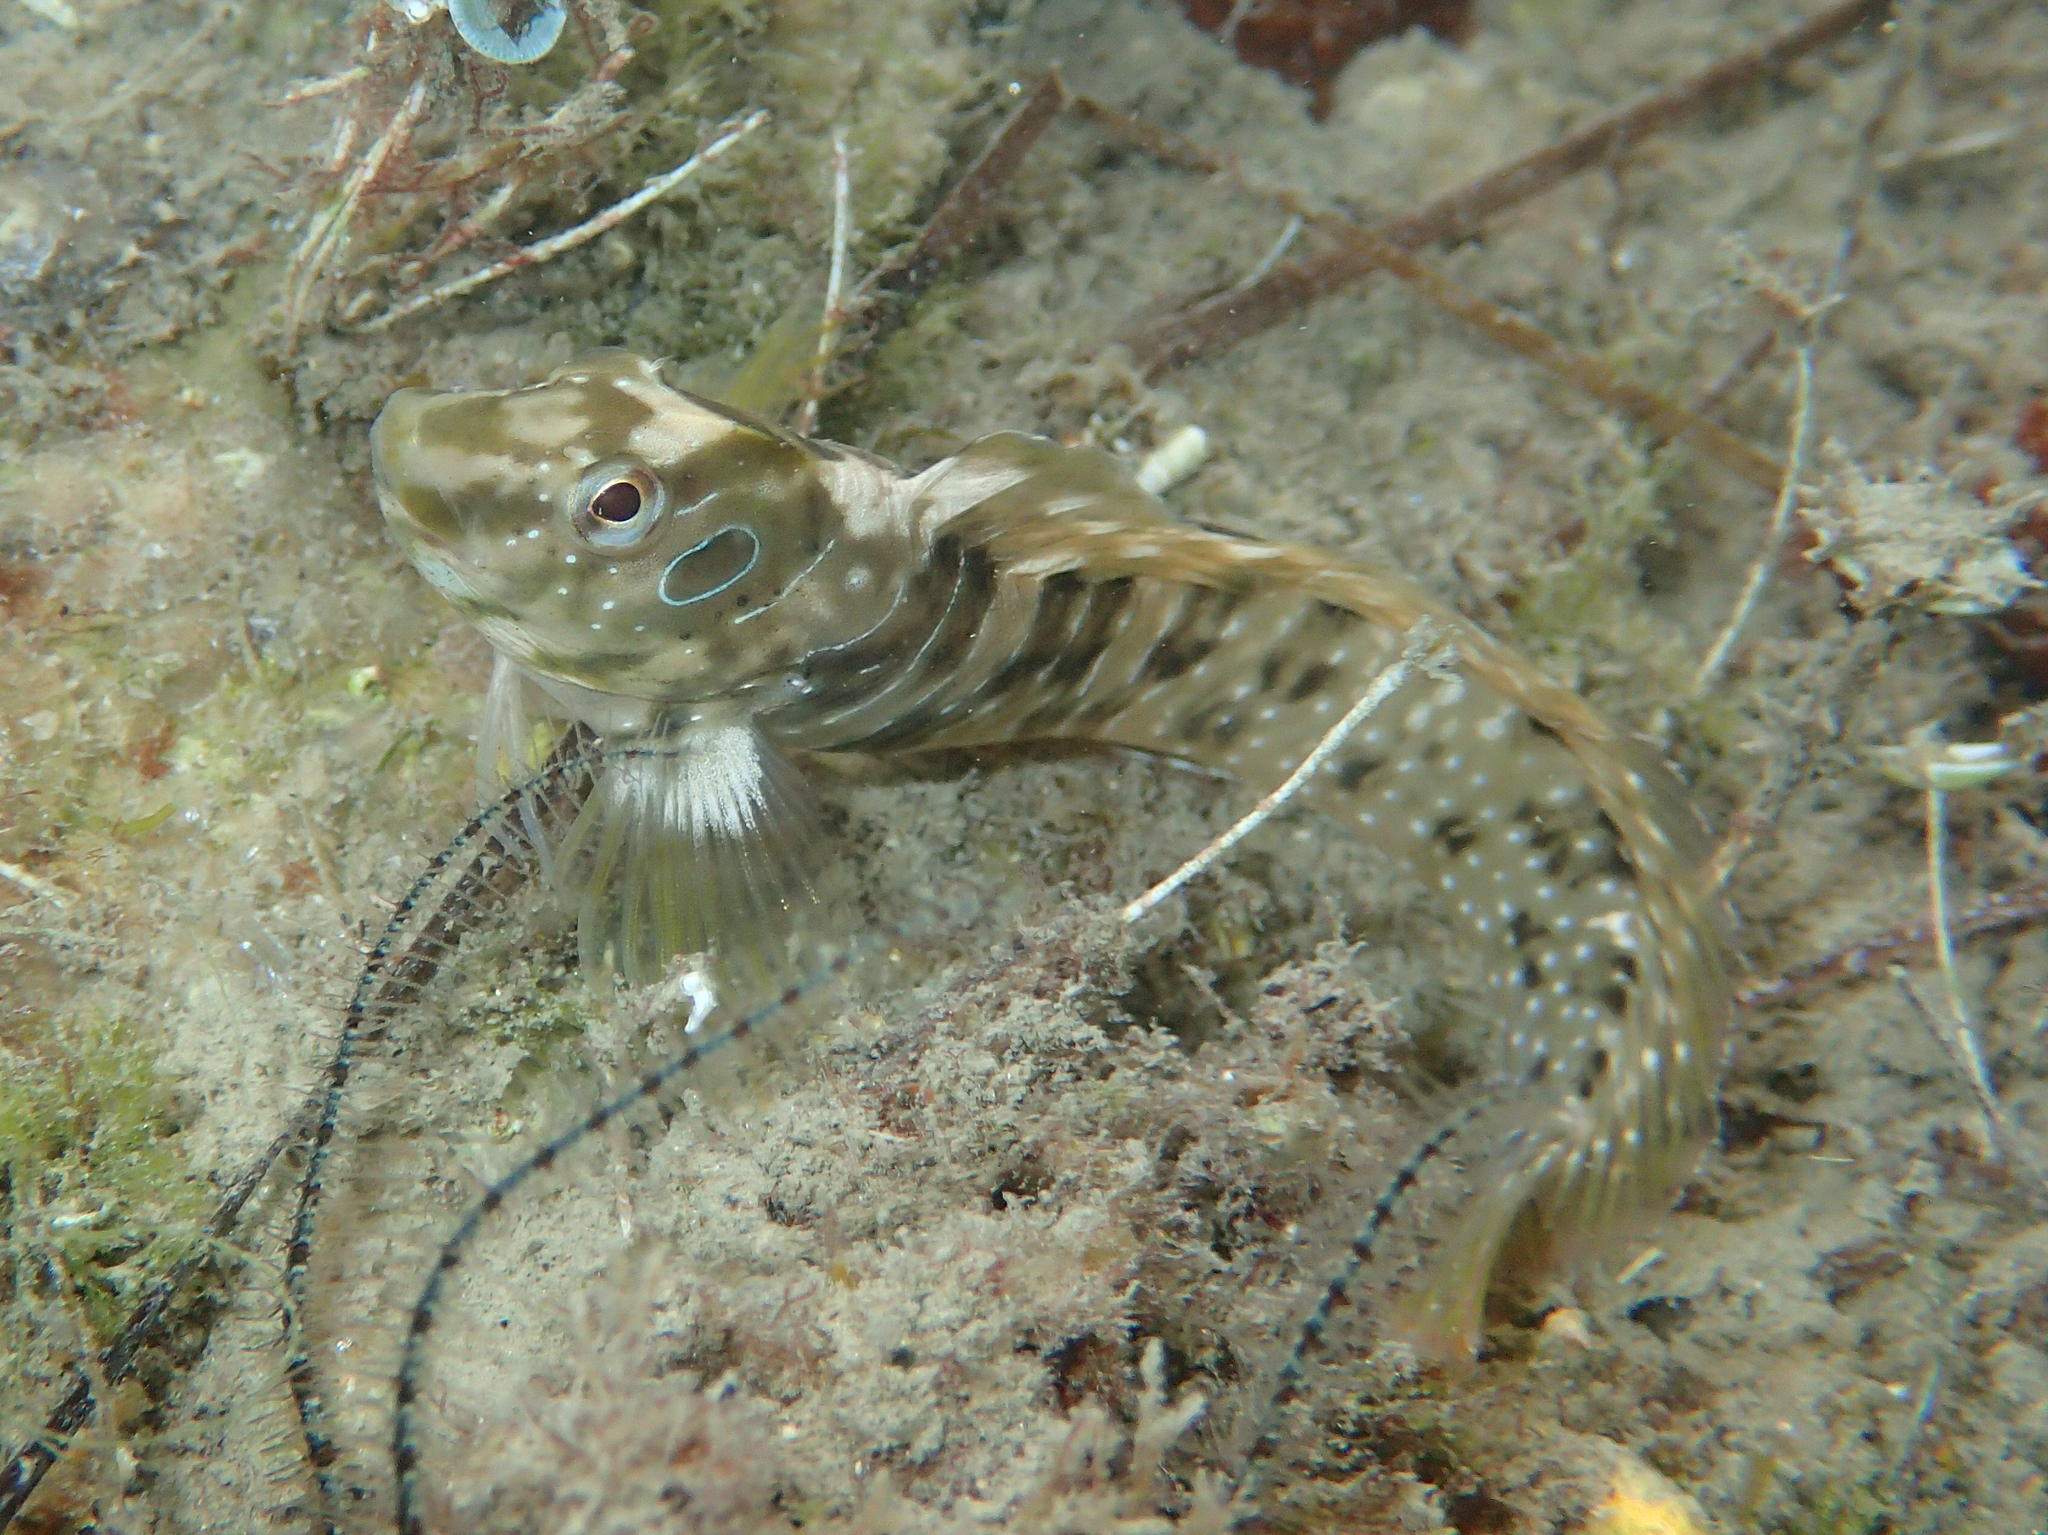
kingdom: Animalia
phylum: Chordata
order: Perciformes
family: Blenniidae
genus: Salaria
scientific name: Salaria pavo
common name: Peacock blenny
